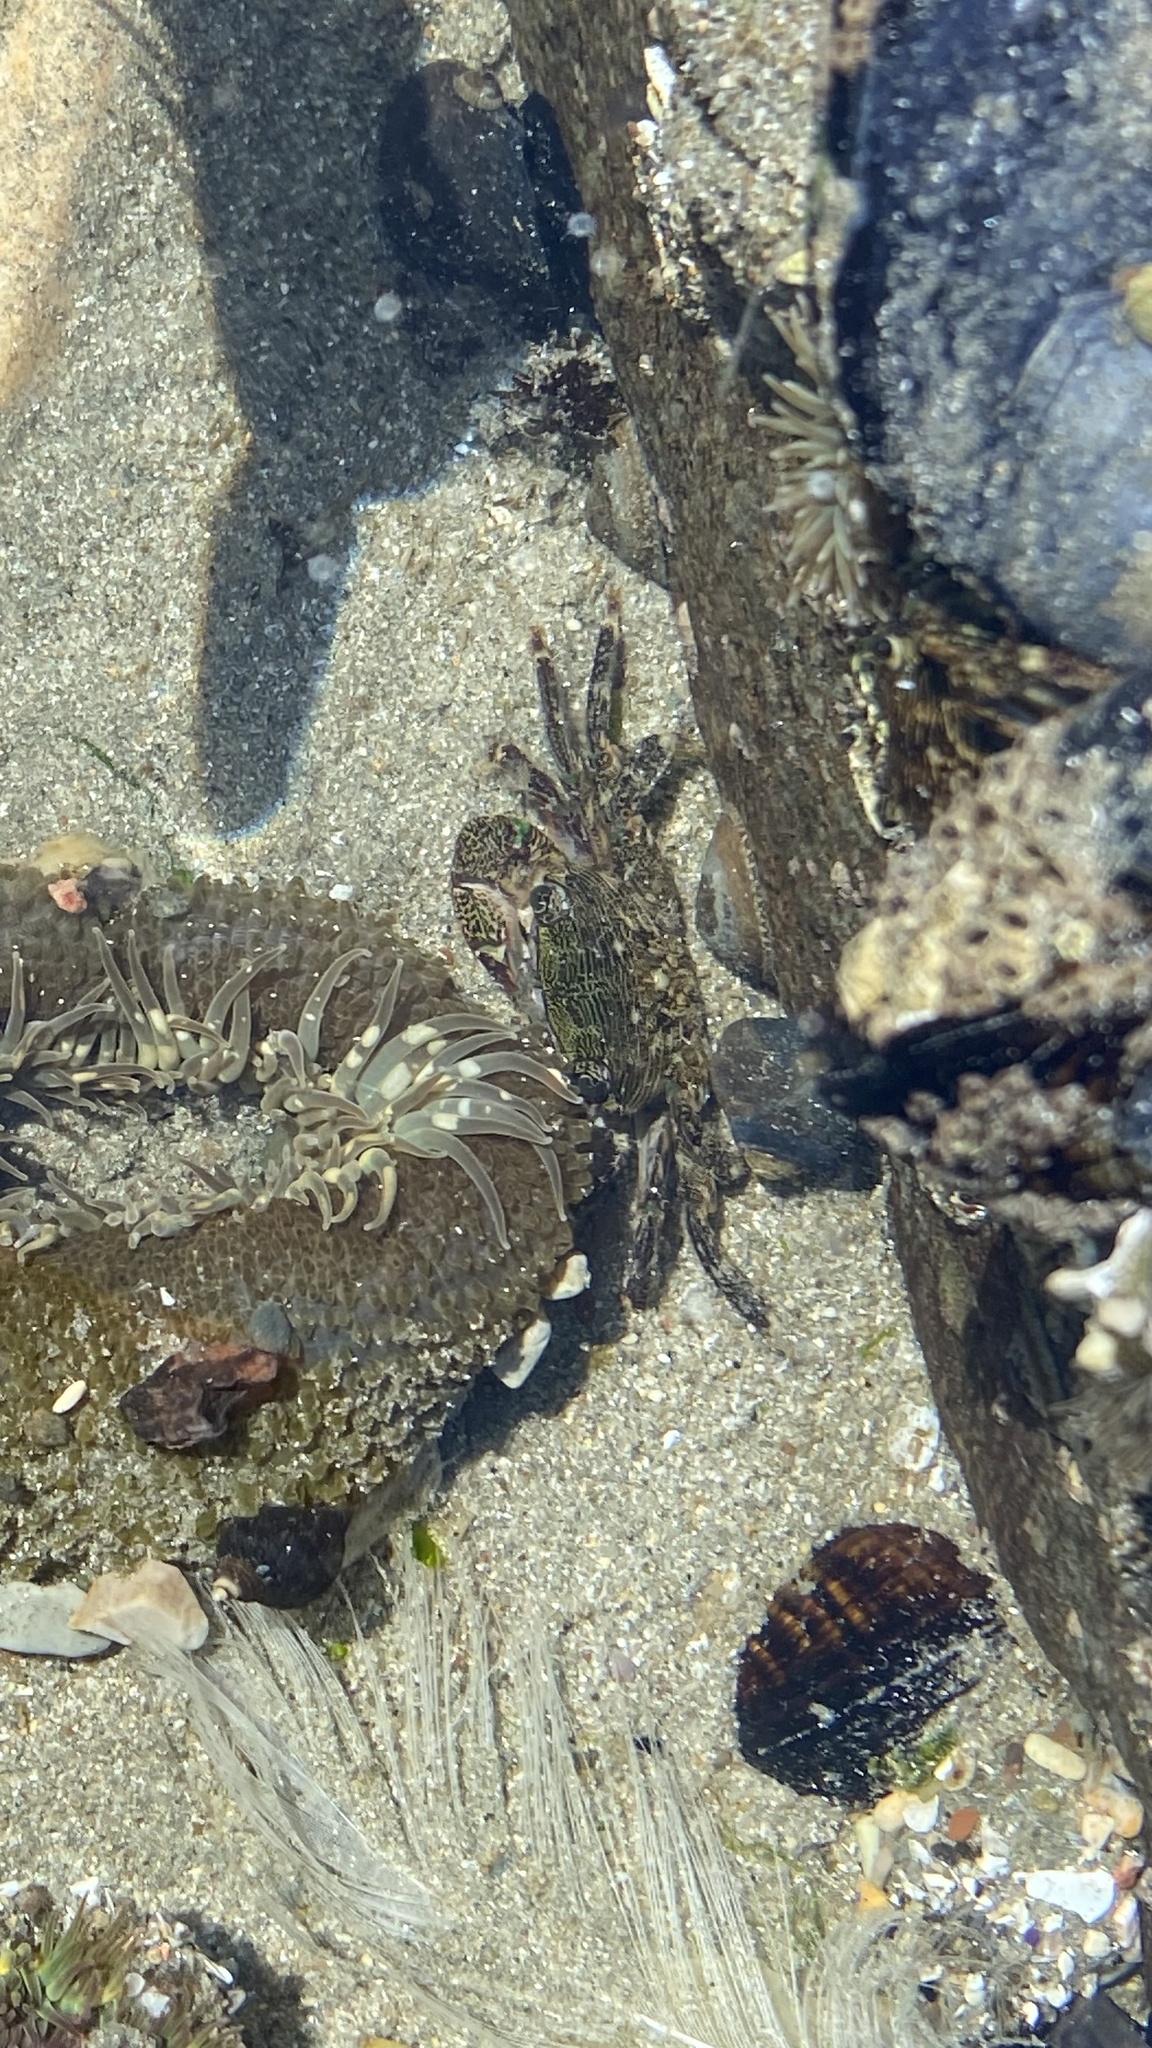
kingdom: Animalia
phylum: Arthropoda
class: Malacostraca
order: Decapoda
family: Grapsidae
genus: Pachygrapsus
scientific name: Pachygrapsus crassipes
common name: Striped shore crab
